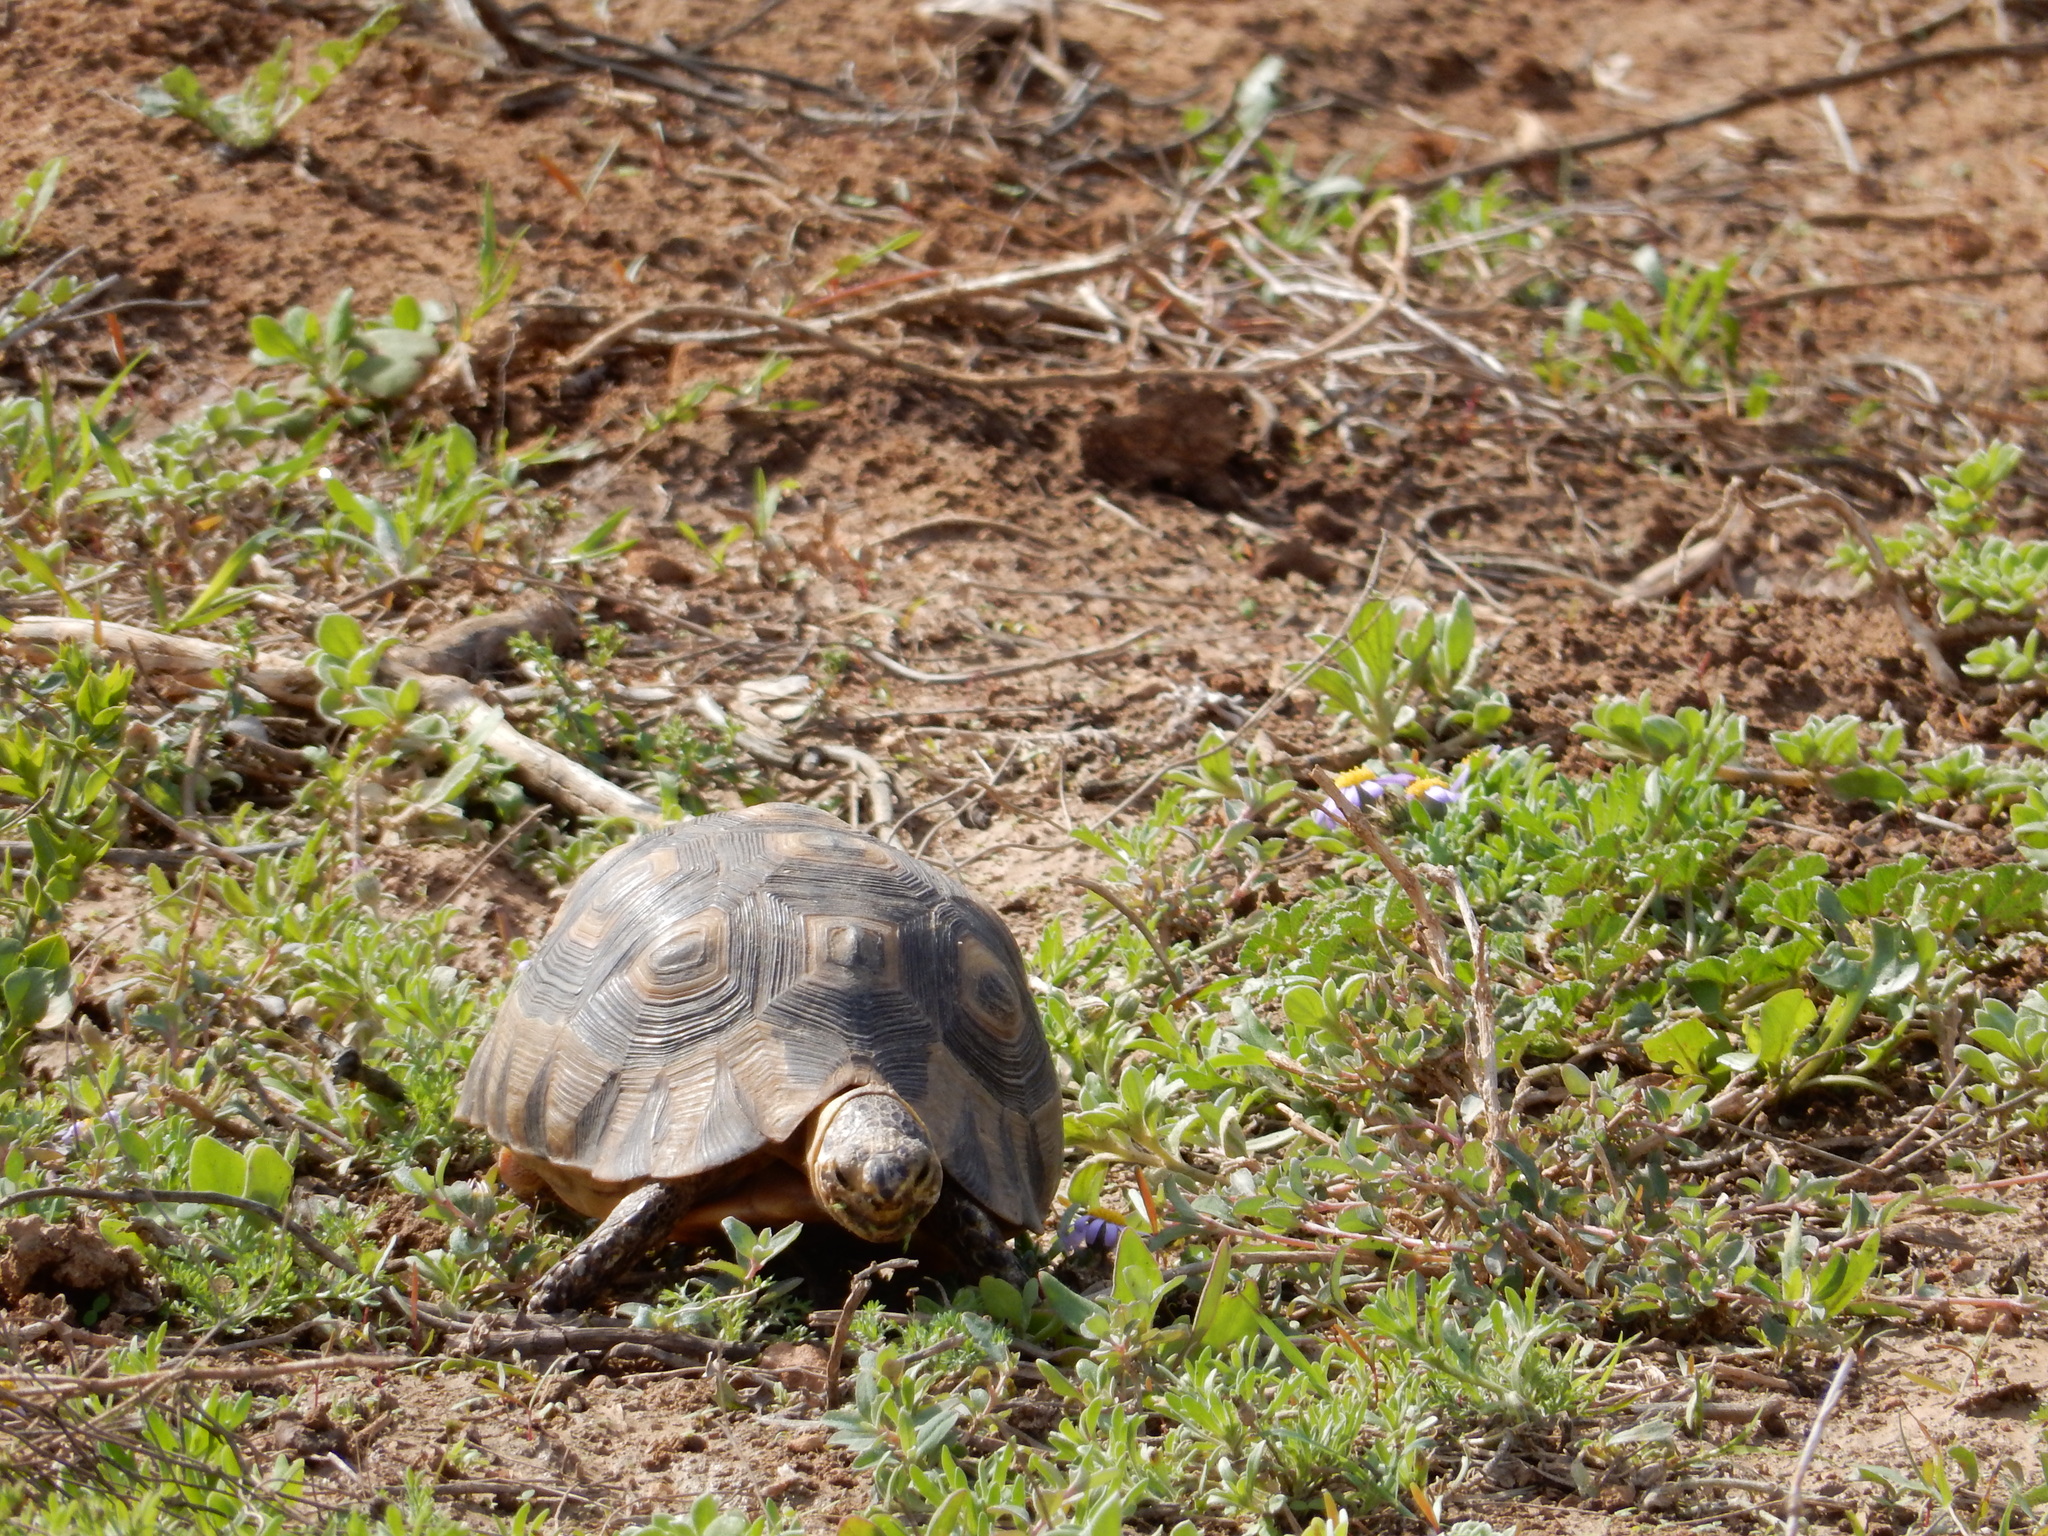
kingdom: Animalia
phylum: Chordata
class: Testudines
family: Testudinidae
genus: Chersina
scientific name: Chersina angulata
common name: South african bowsprit tortoise
